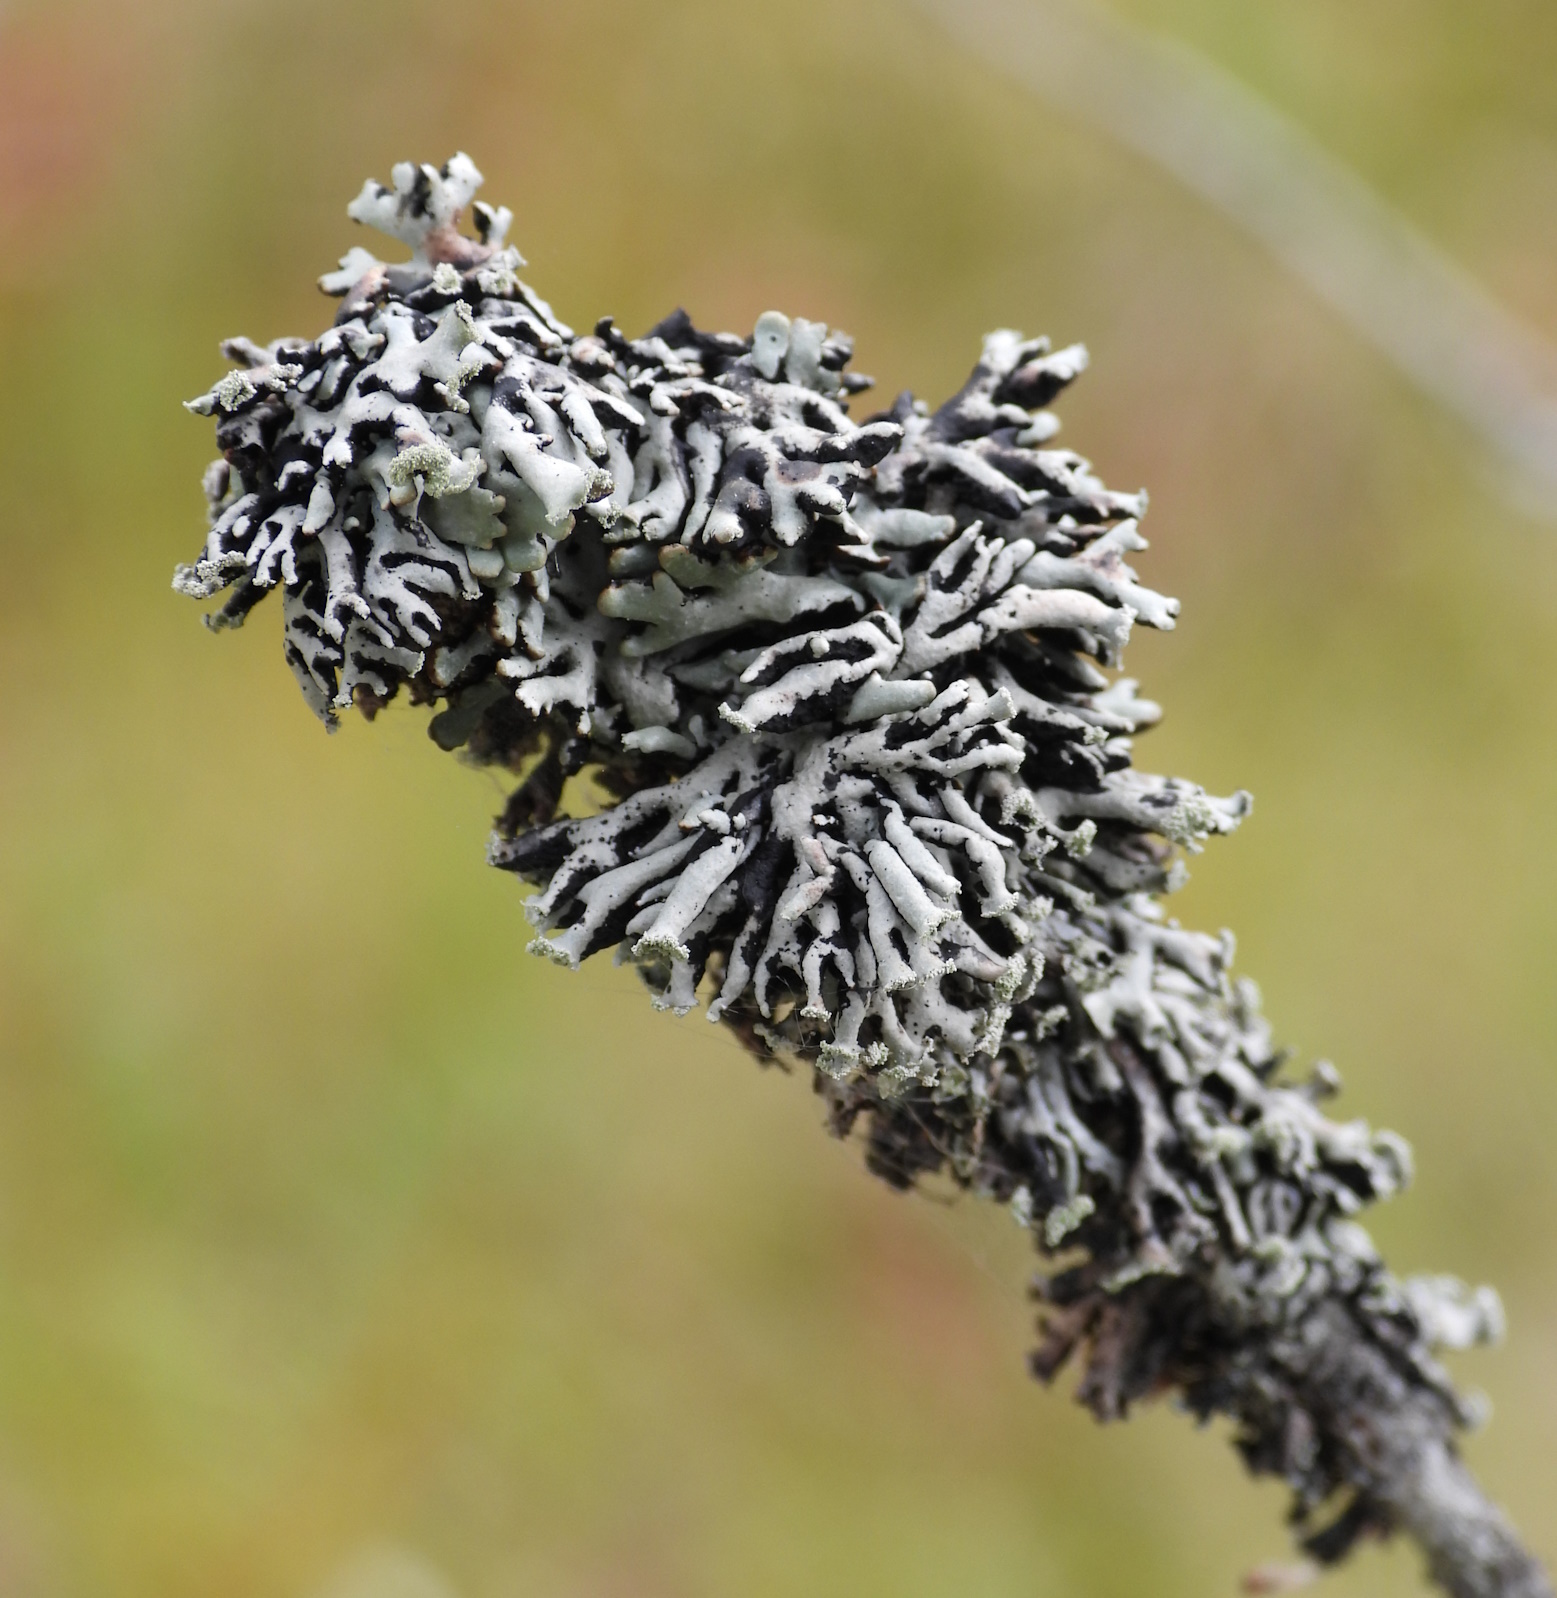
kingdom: Fungi
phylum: Ascomycota
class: Lecanoromycetes
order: Lecanorales
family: Parmeliaceae
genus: Hypogymnia
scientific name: Hypogymnia physodes
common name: Dark crottle
